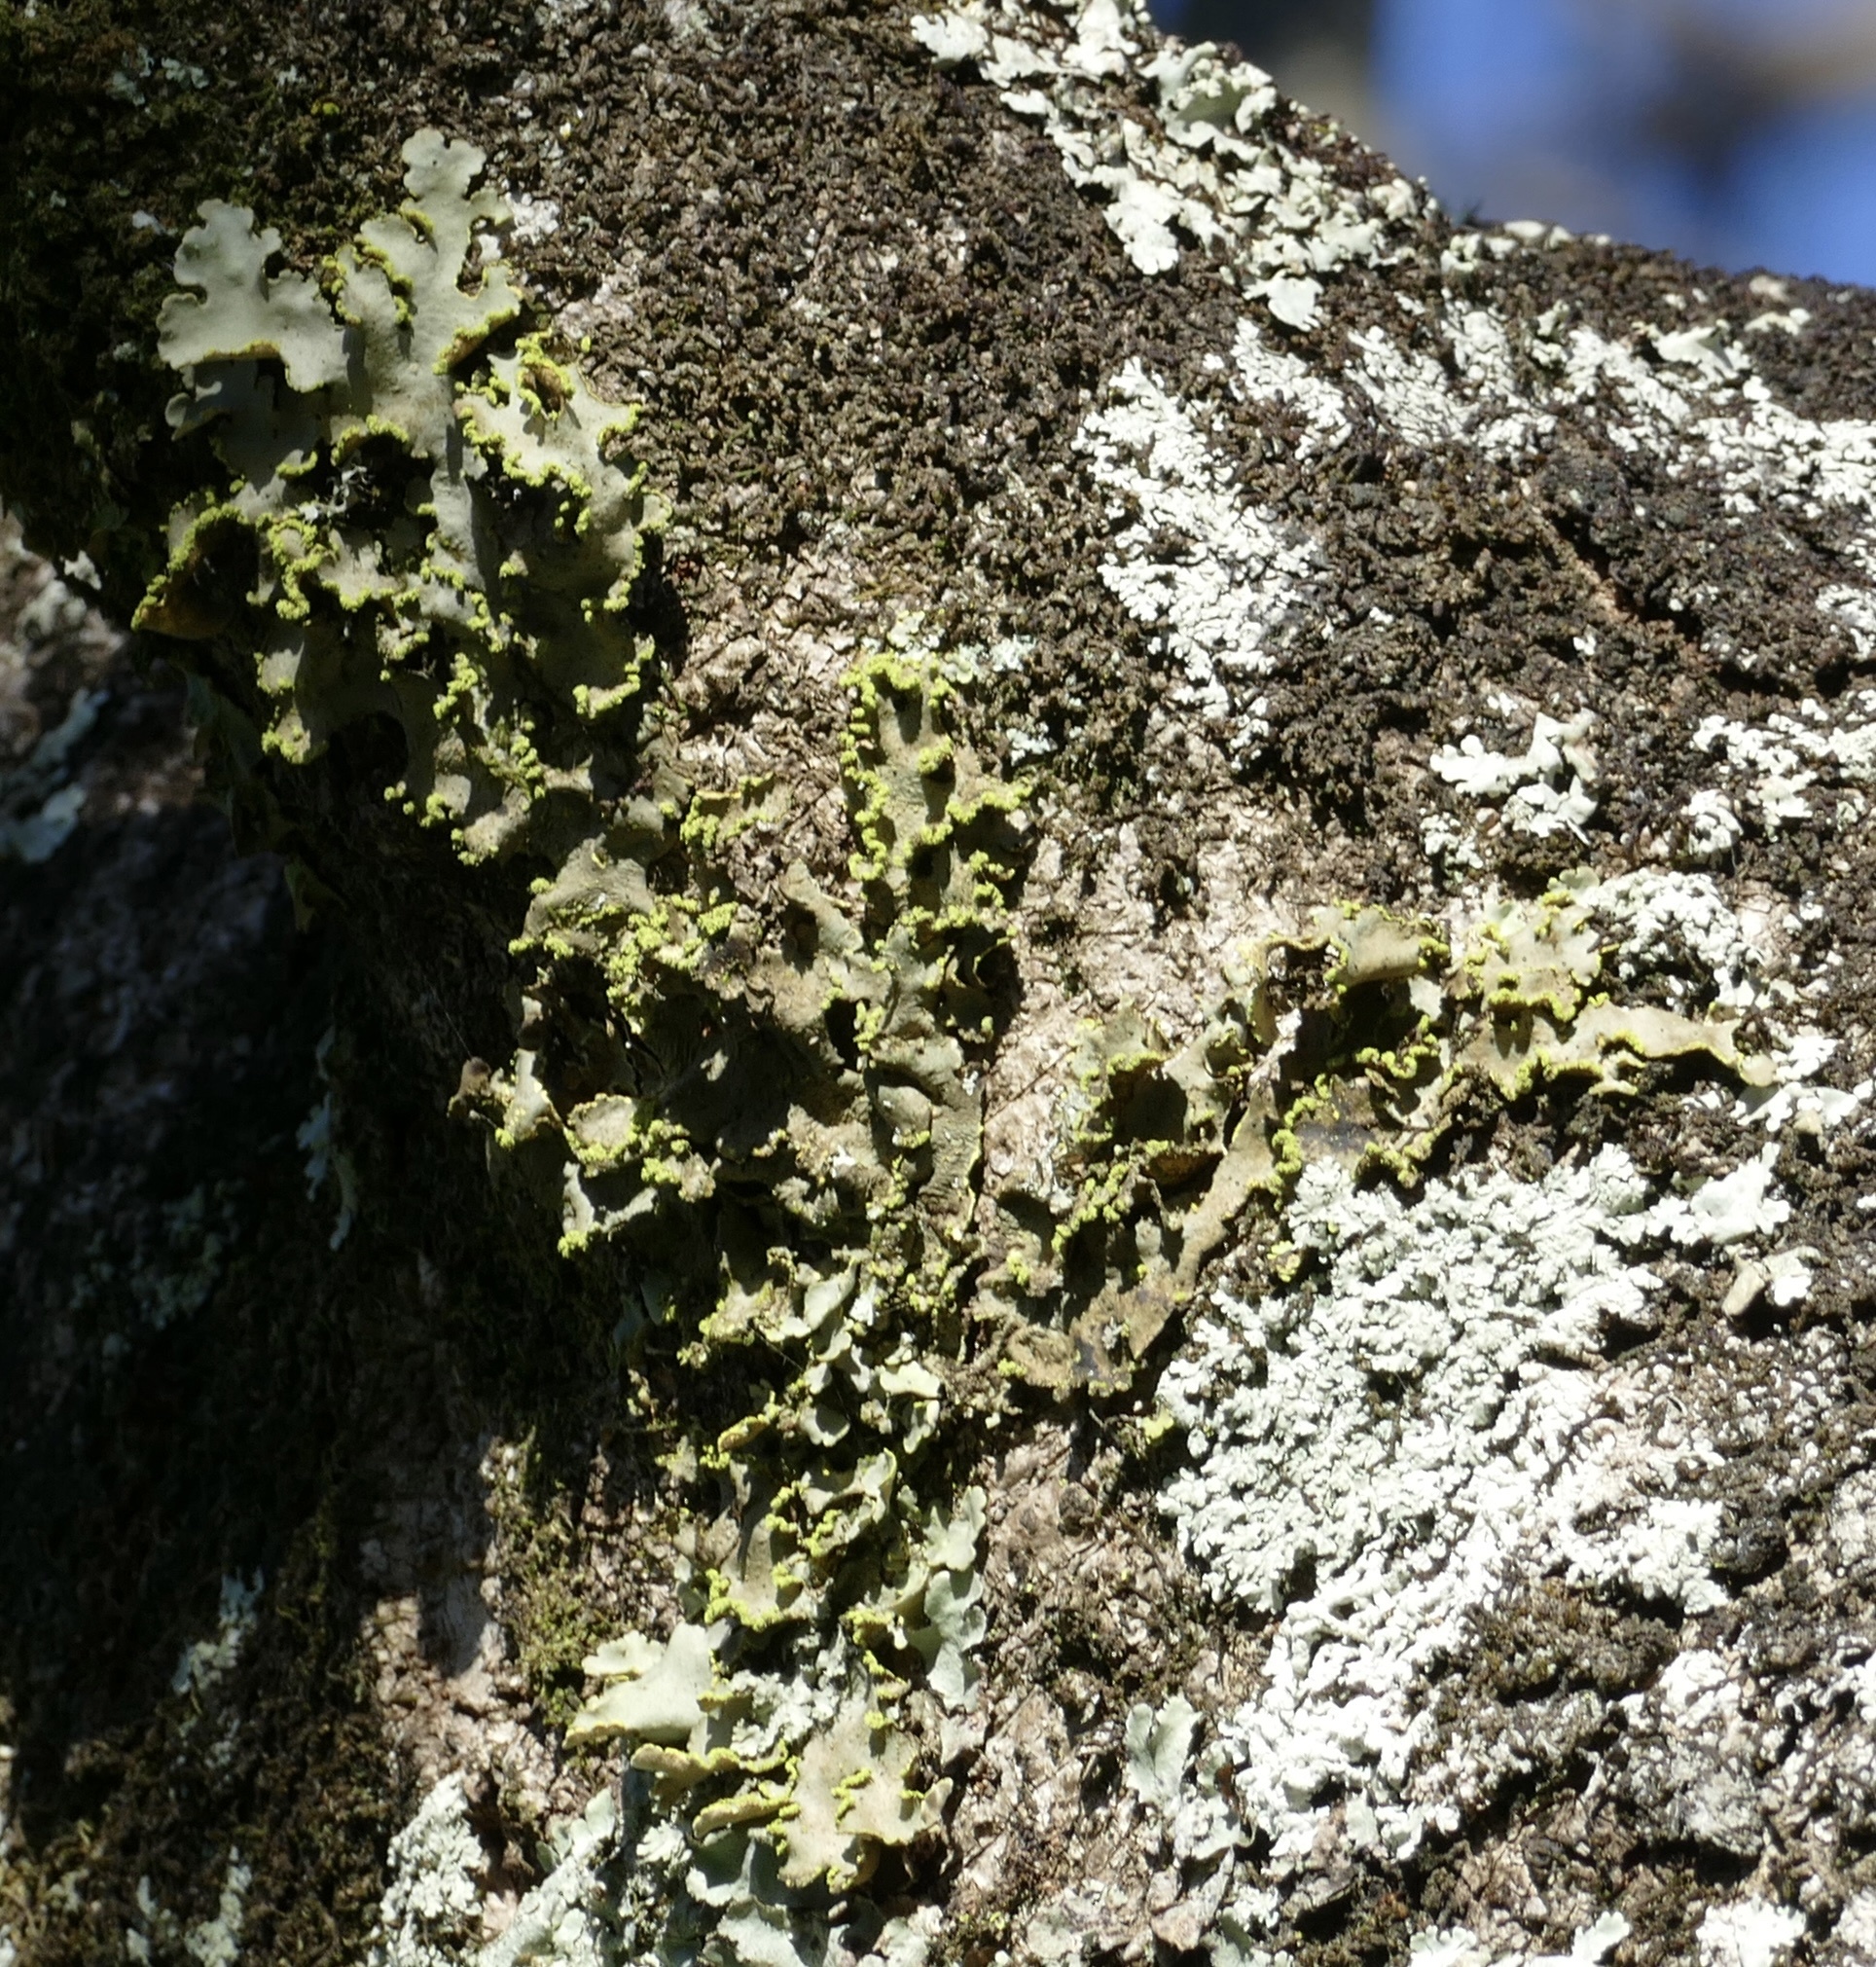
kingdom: Fungi
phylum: Ascomycota
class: Lecanoromycetes
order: Peltigerales
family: Lobariaceae
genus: Pseudocyphellaria
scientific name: Pseudocyphellaria aurata
